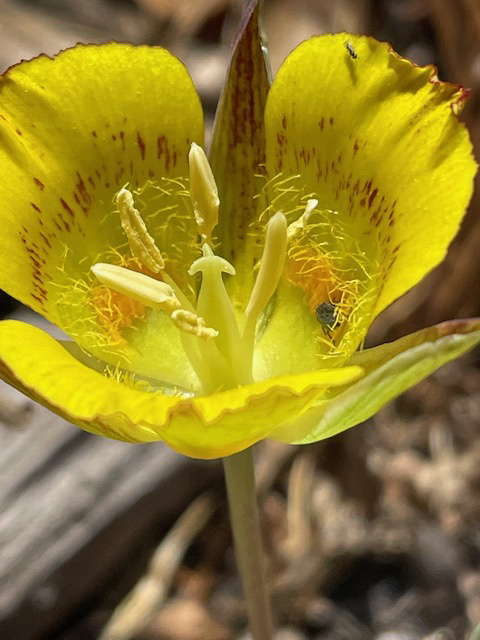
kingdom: Plantae
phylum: Tracheophyta
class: Liliopsida
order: Liliales
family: Liliaceae
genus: Calochortus
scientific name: Calochortus luteus
